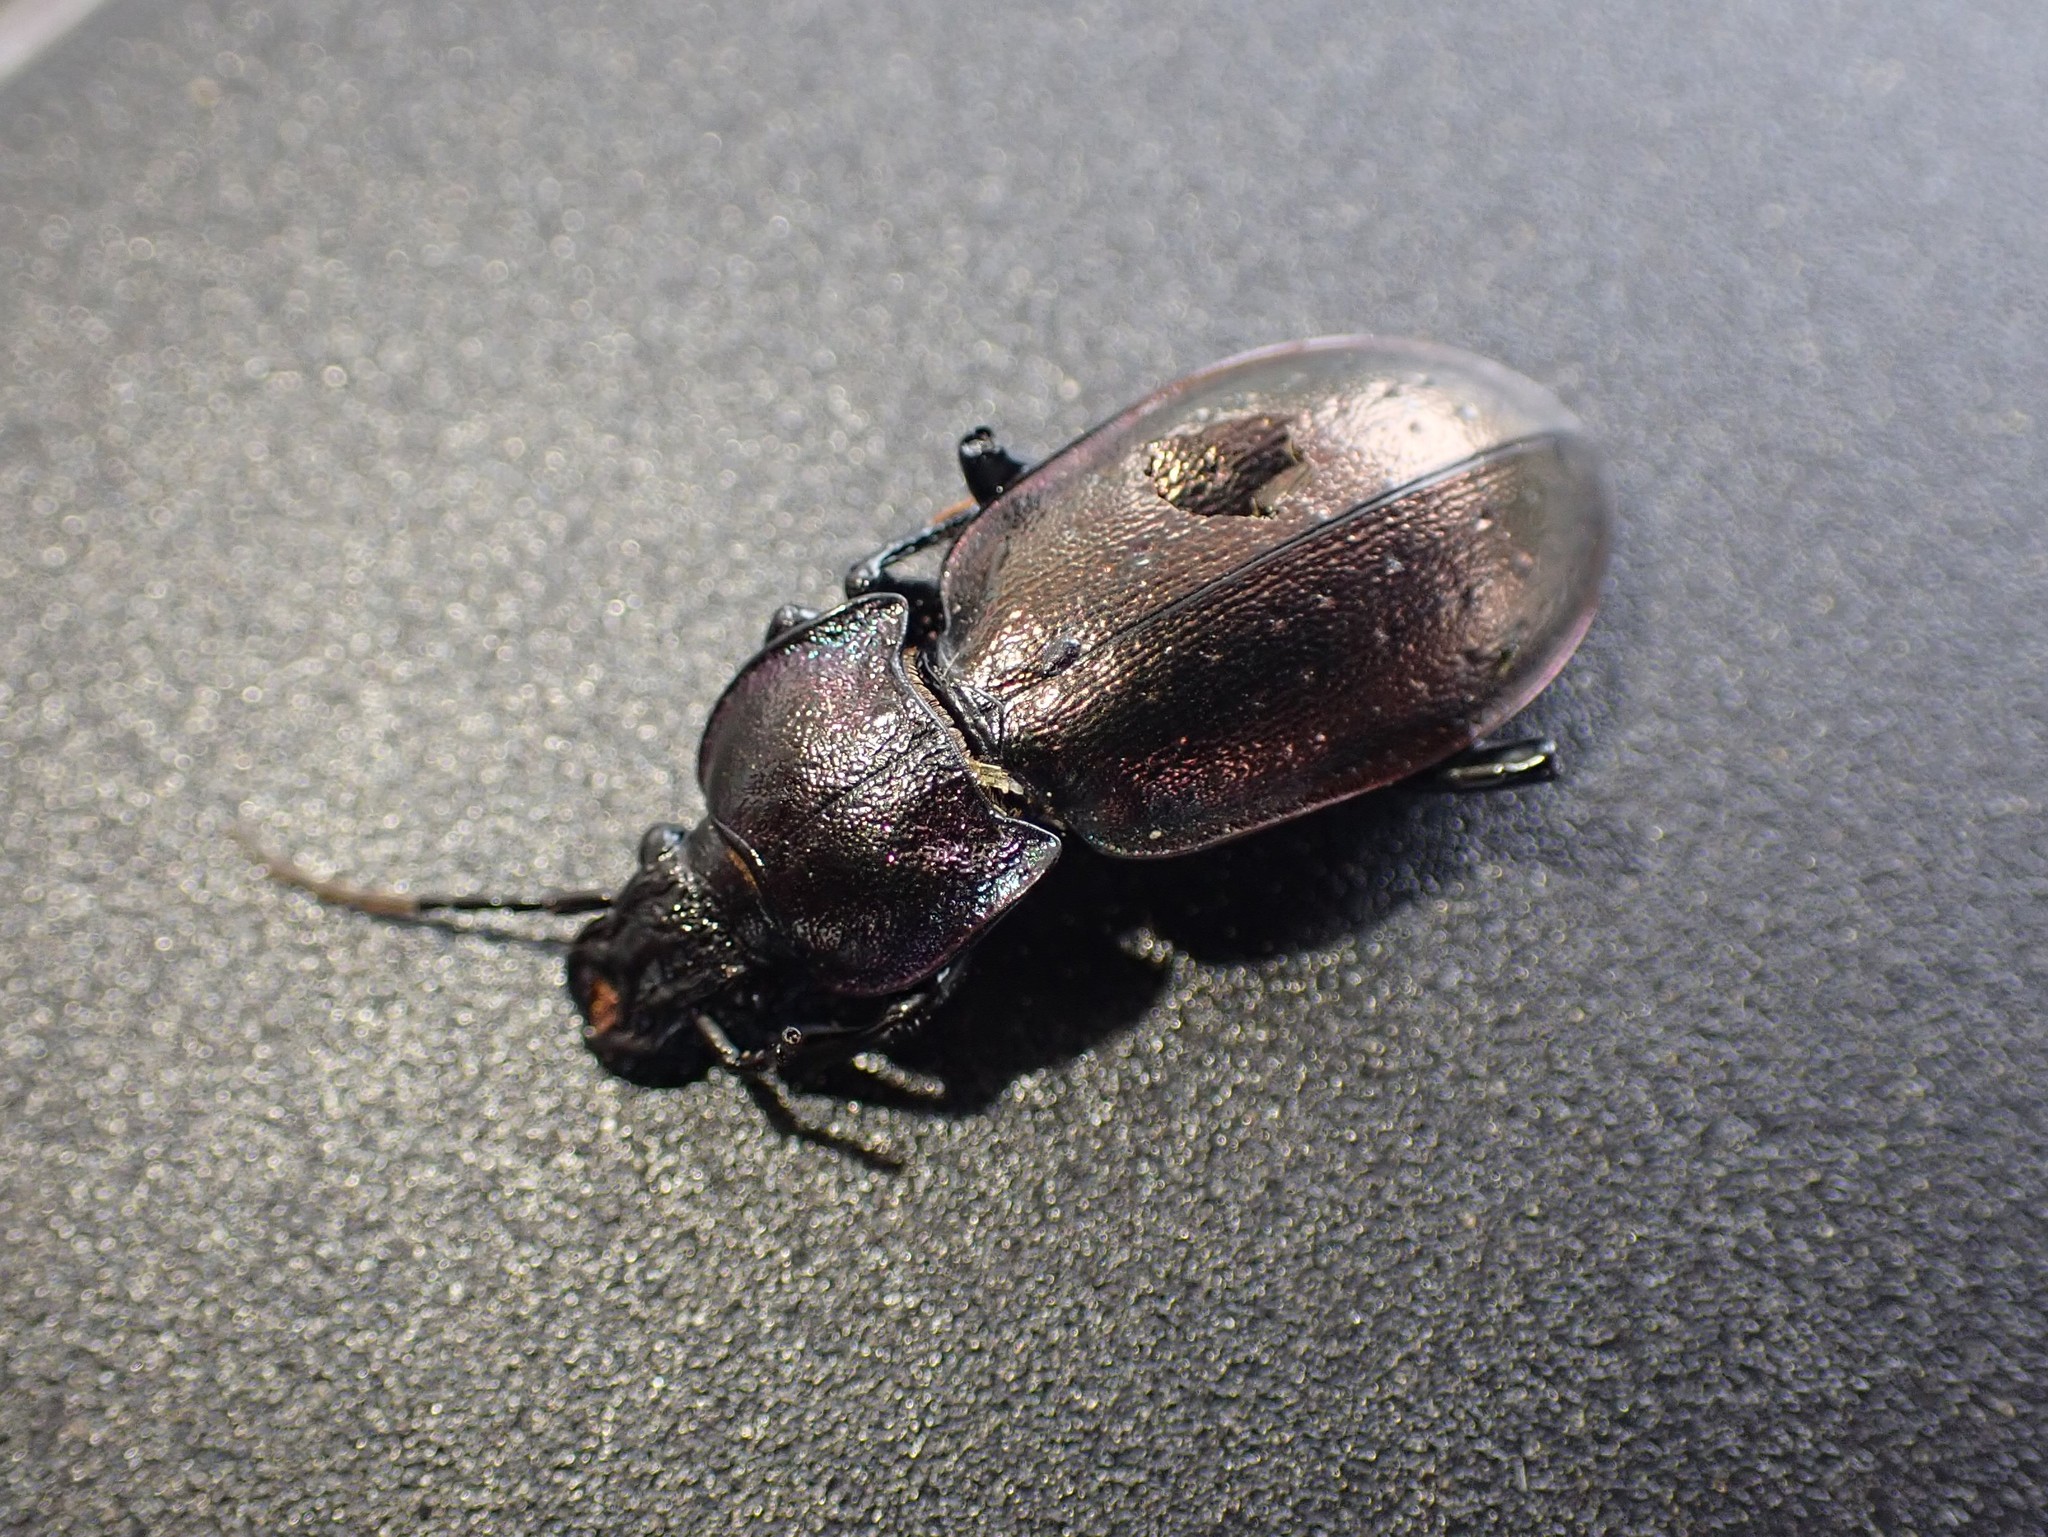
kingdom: Animalia
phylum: Arthropoda
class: Insecta
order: Coleoptera
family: Carabidae
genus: Carabus
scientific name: Carabus nemoralis
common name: European ground beetle
